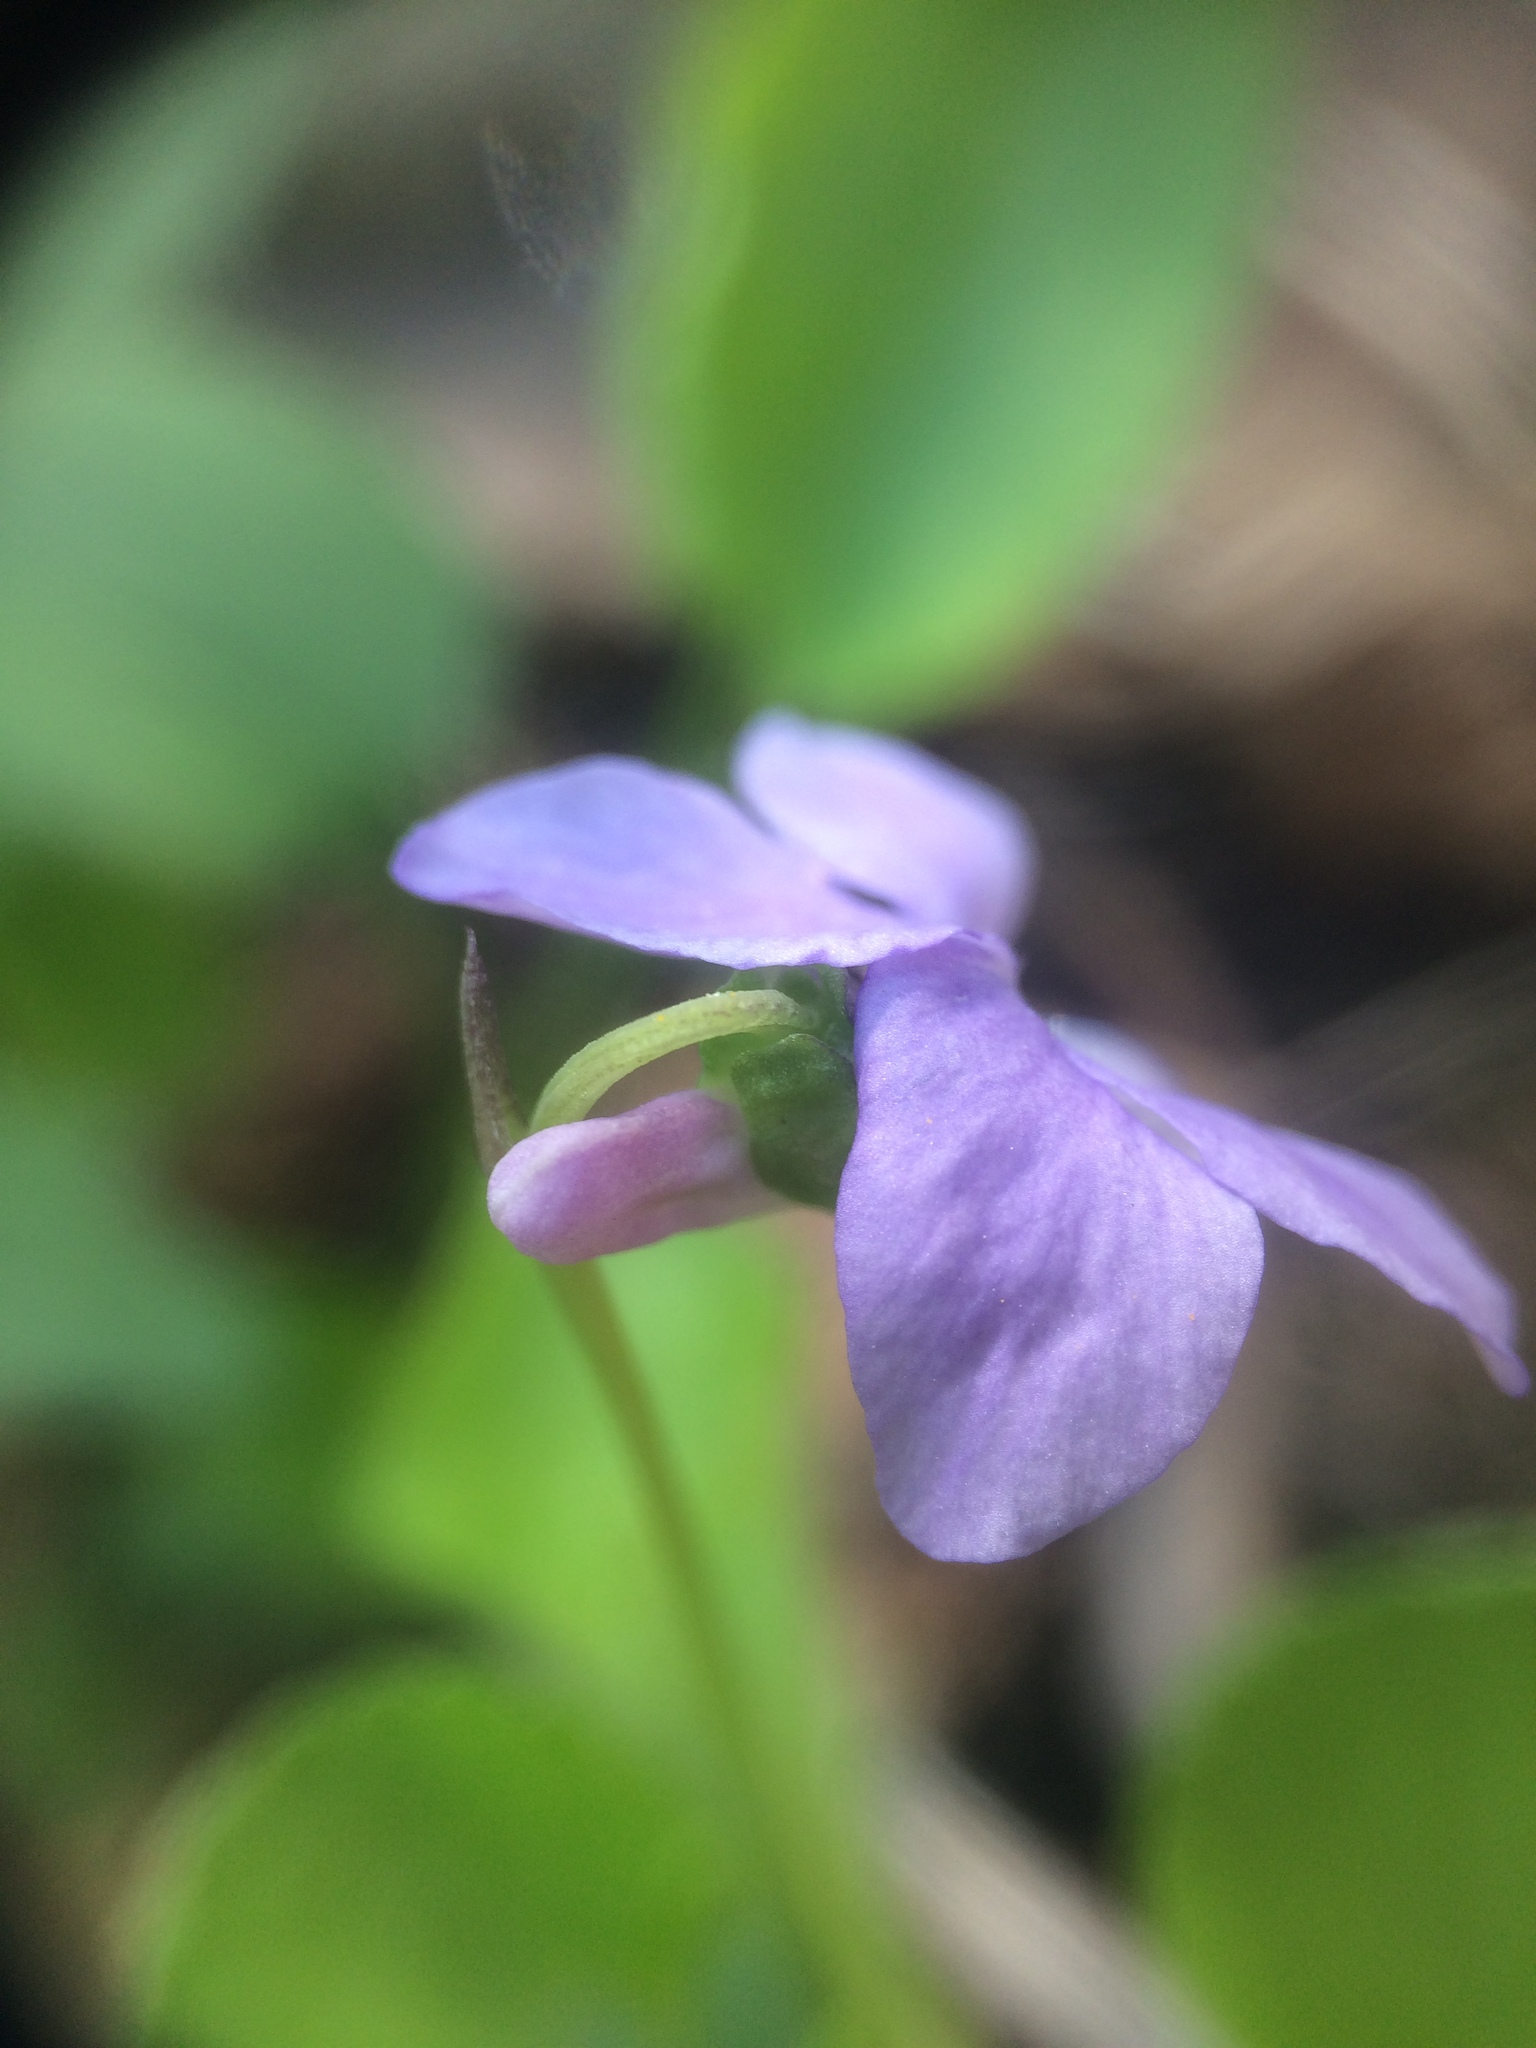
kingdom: Plantae
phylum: Tracheophyta
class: Magnoliopsida
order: Malpighiales
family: Violaceae
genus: Viola
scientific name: Viola labradorica
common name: Labrador violet
